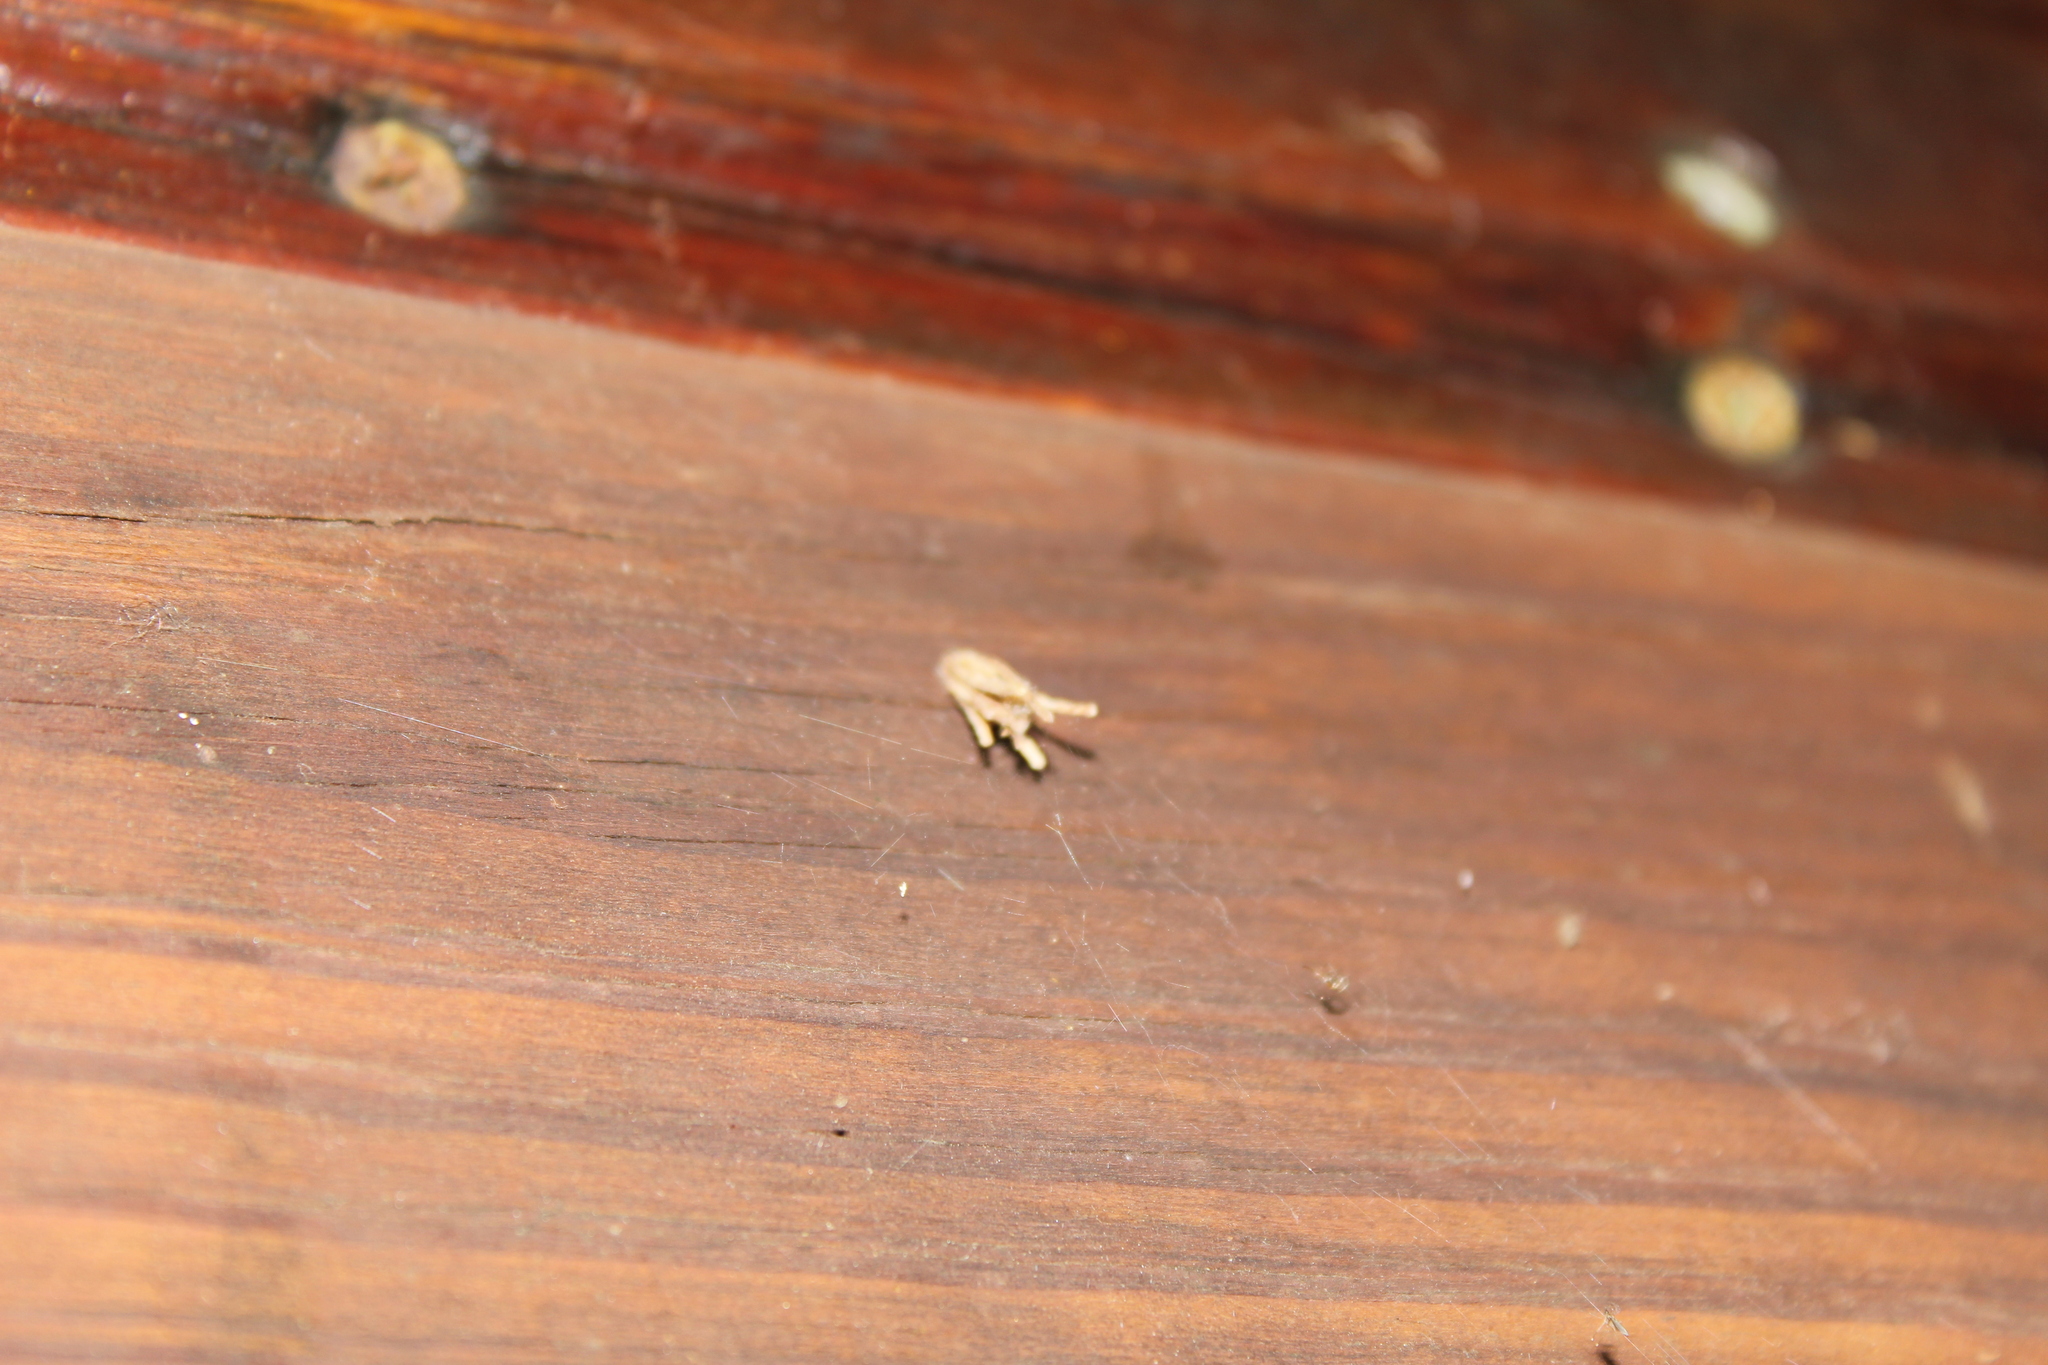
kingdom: Animalia
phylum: Arthropoda
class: Insecta
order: Lepidoptera
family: Psychidae
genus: Psyche
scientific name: Psyche casta
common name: Common sweep
